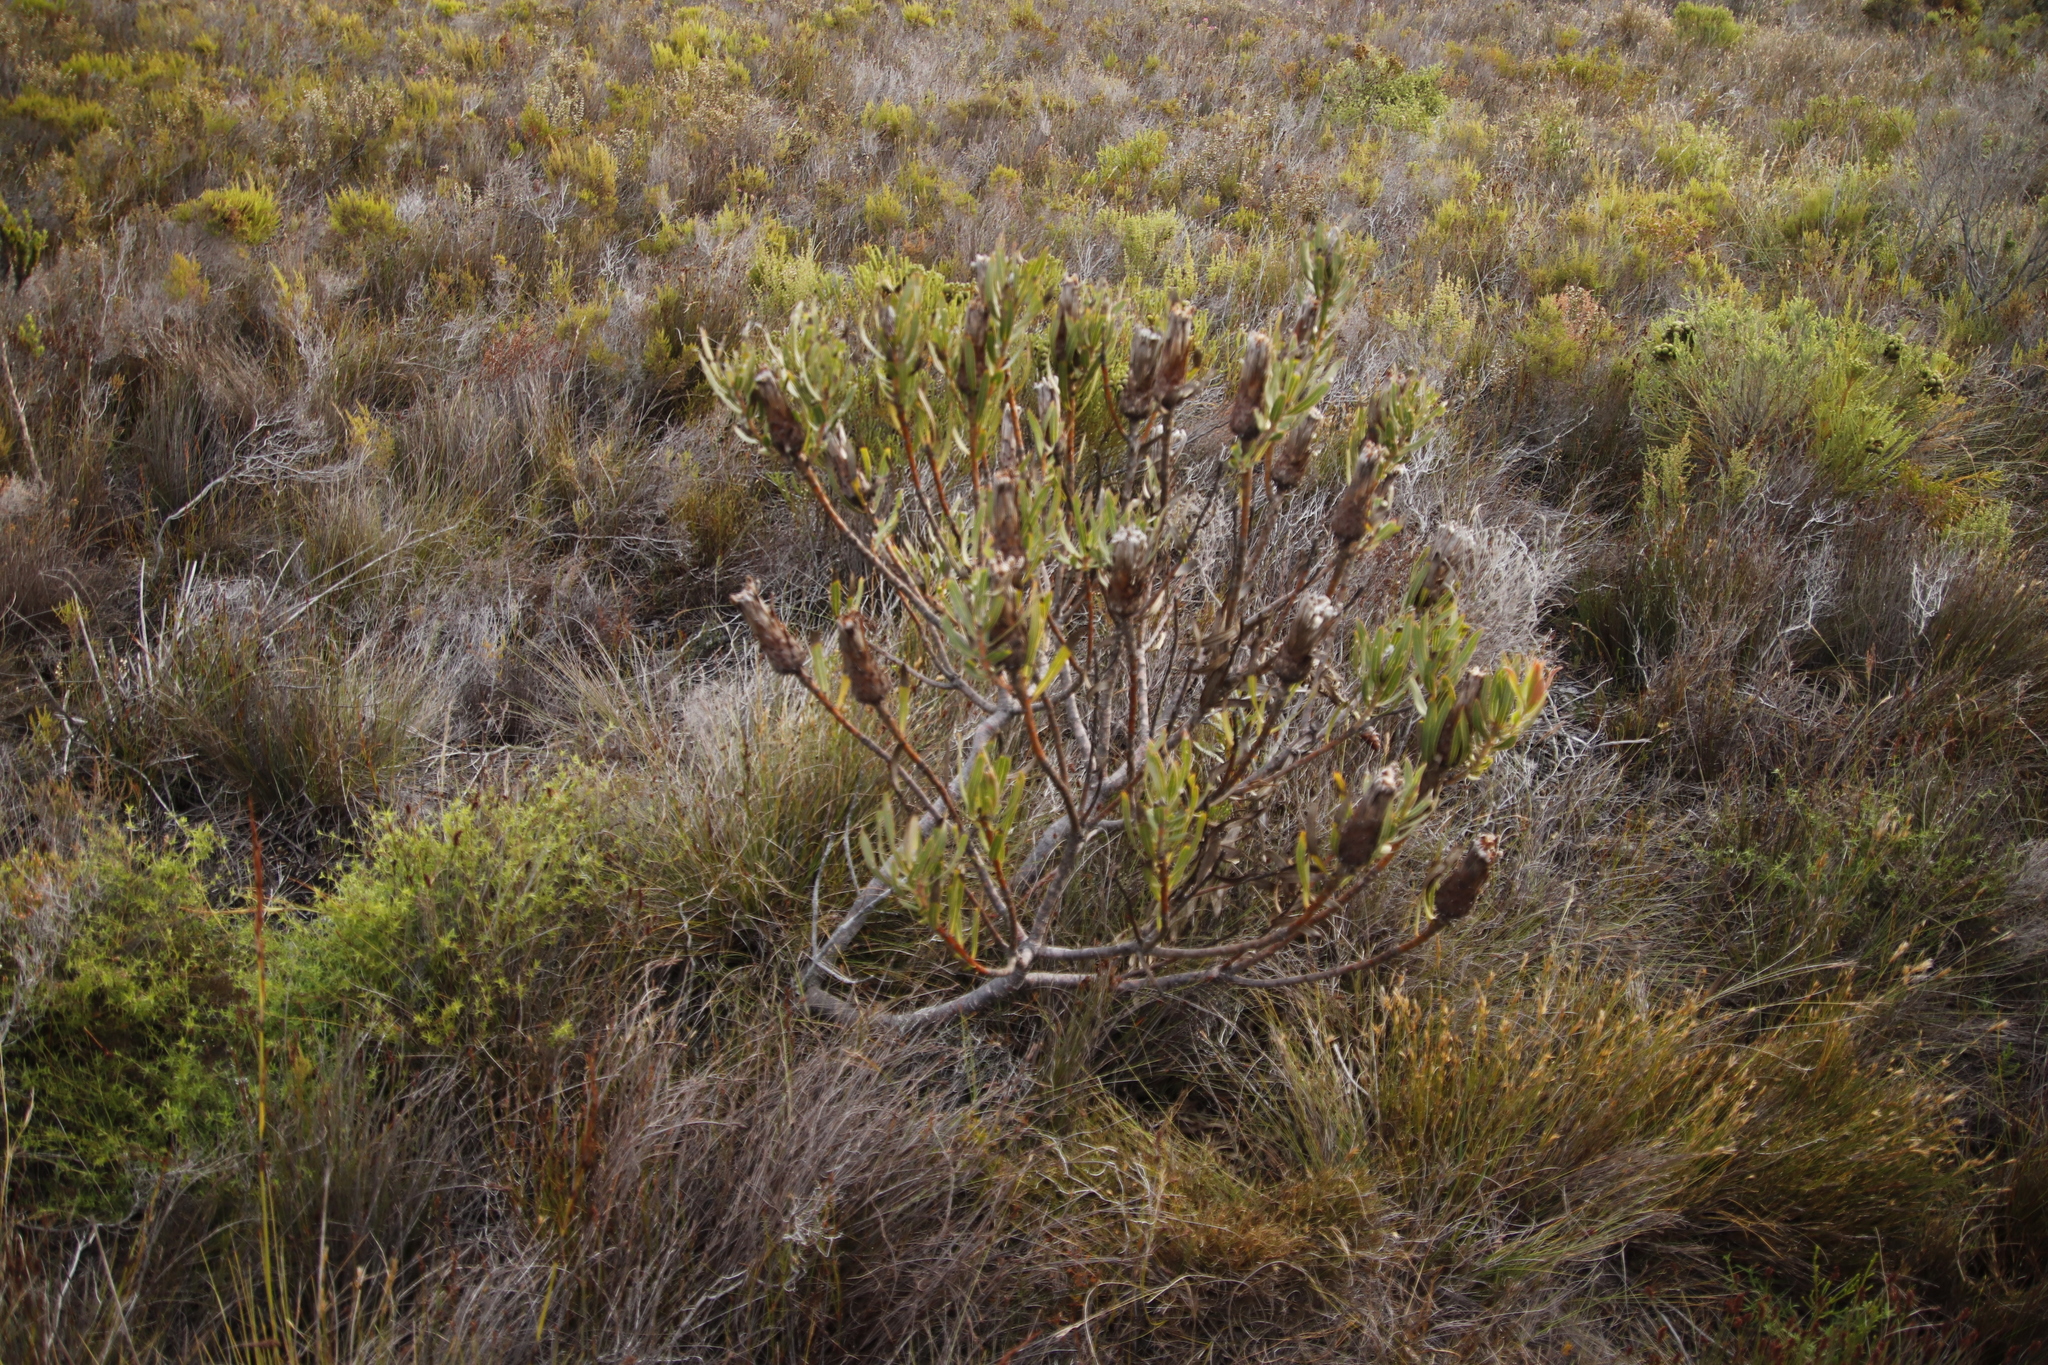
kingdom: Plantae
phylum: Tracheophyta
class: Magnoliopsida
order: Proteales
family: Proteaceae
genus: Protea
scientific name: Protea lepidocarpodendron
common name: Black-bearded protea
